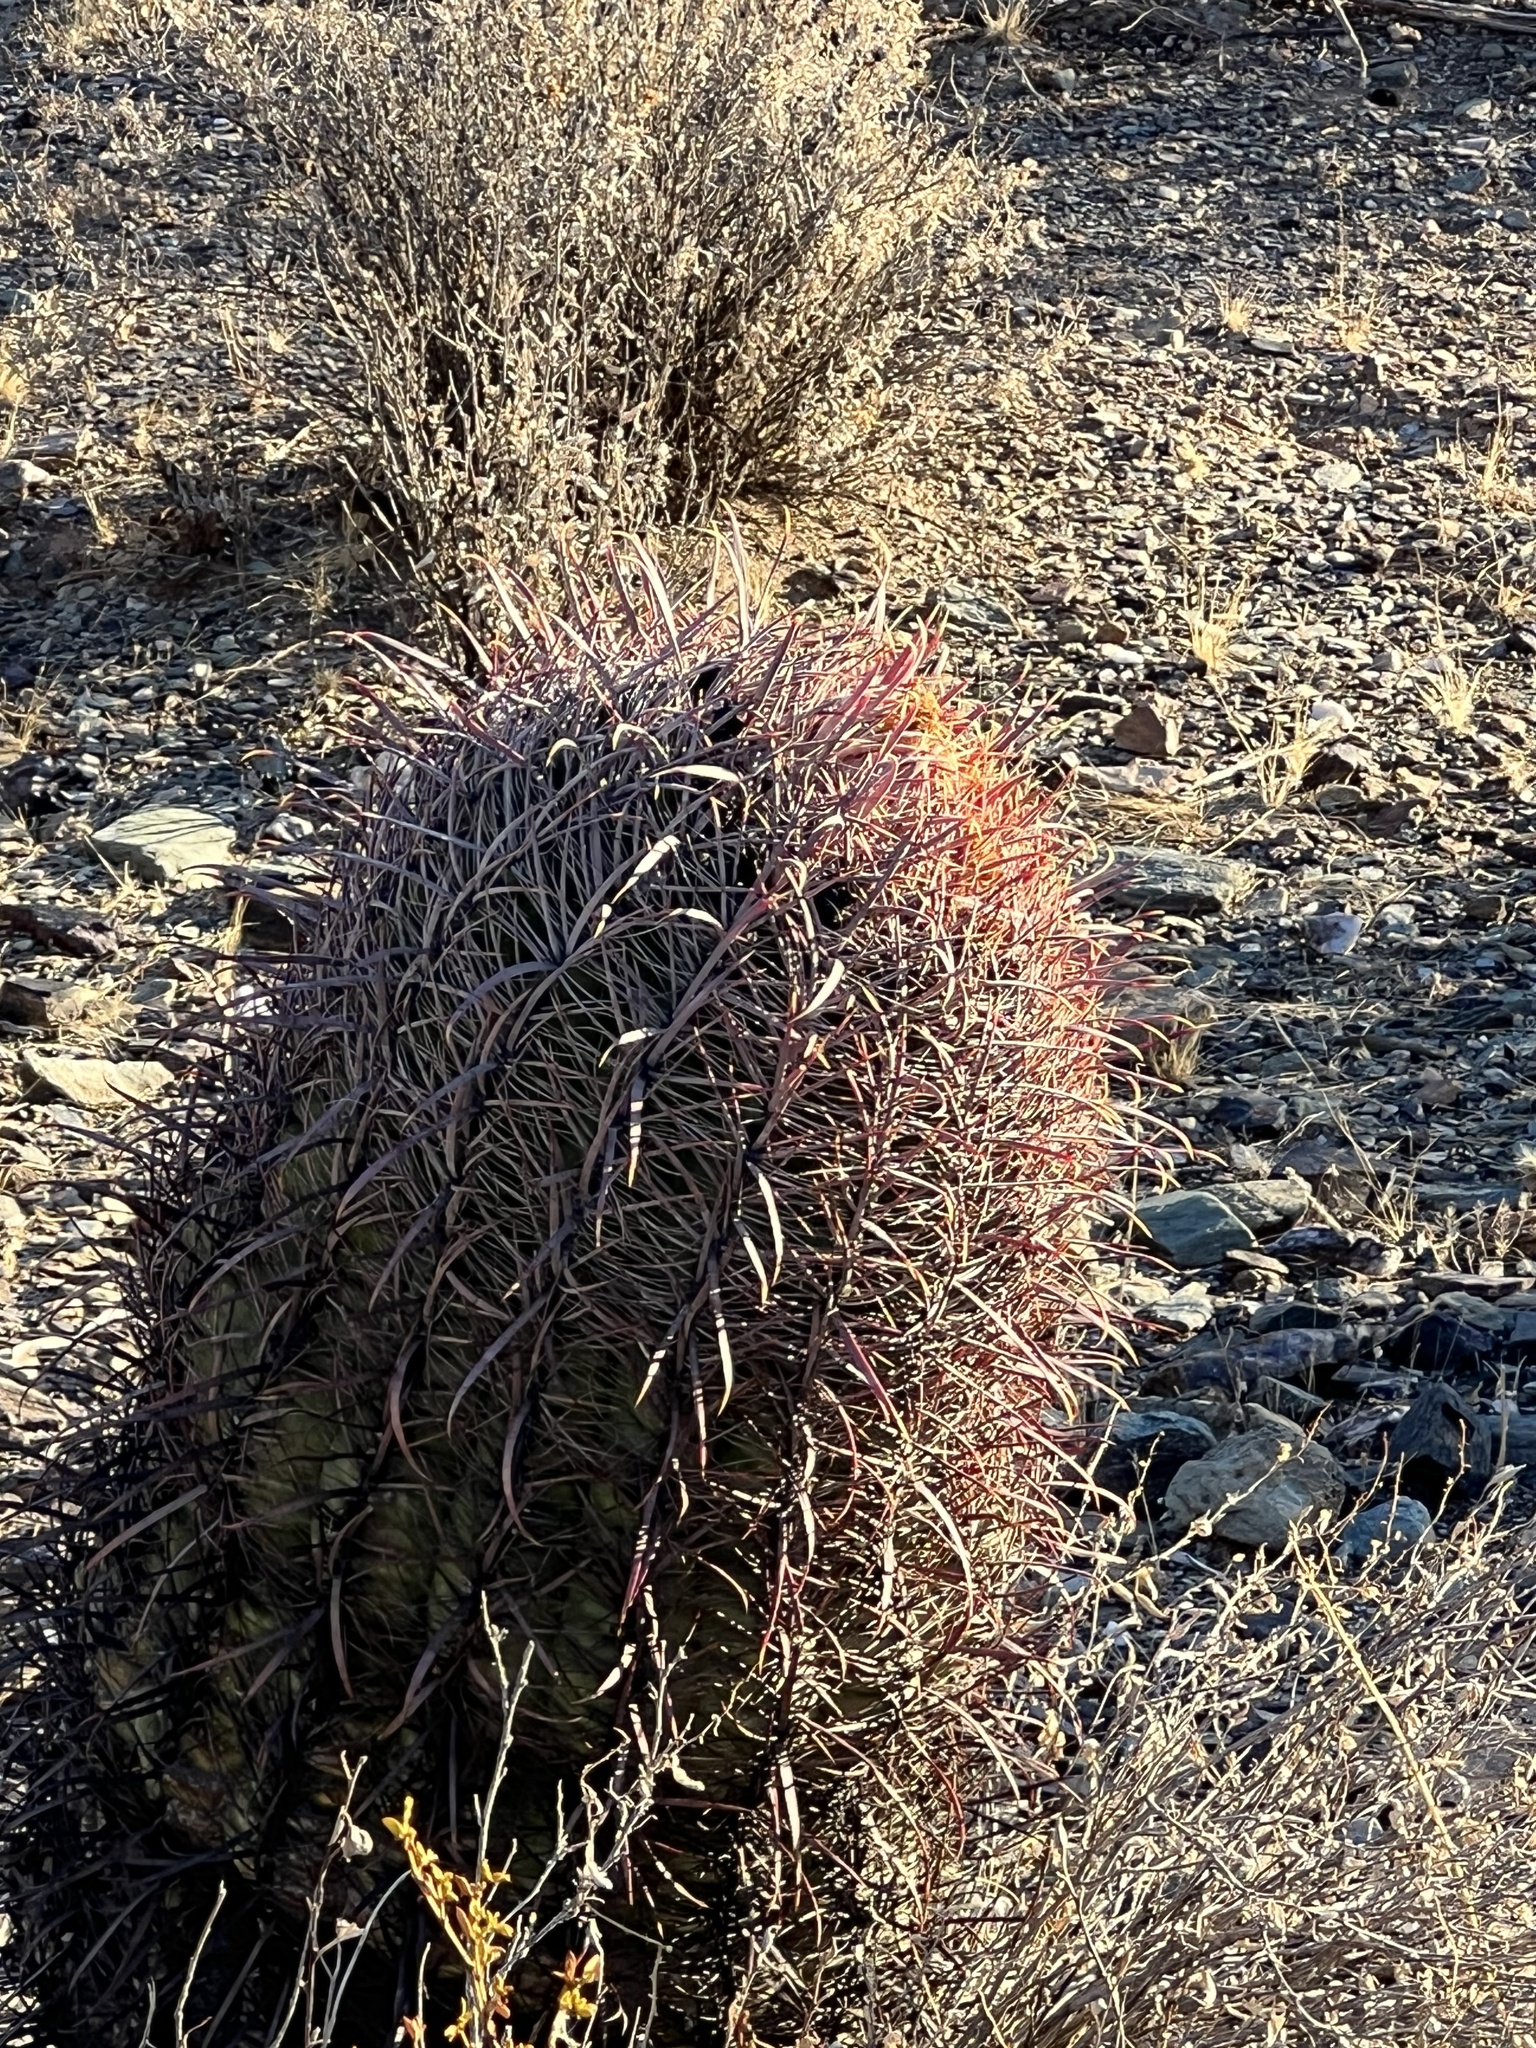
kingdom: Plantae
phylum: Tracheophyta
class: Magnoliopsida
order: Caryophyllales
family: Cactaceae
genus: Ferocactus
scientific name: Ferocactus cylindraceus
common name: California barrel cactus
